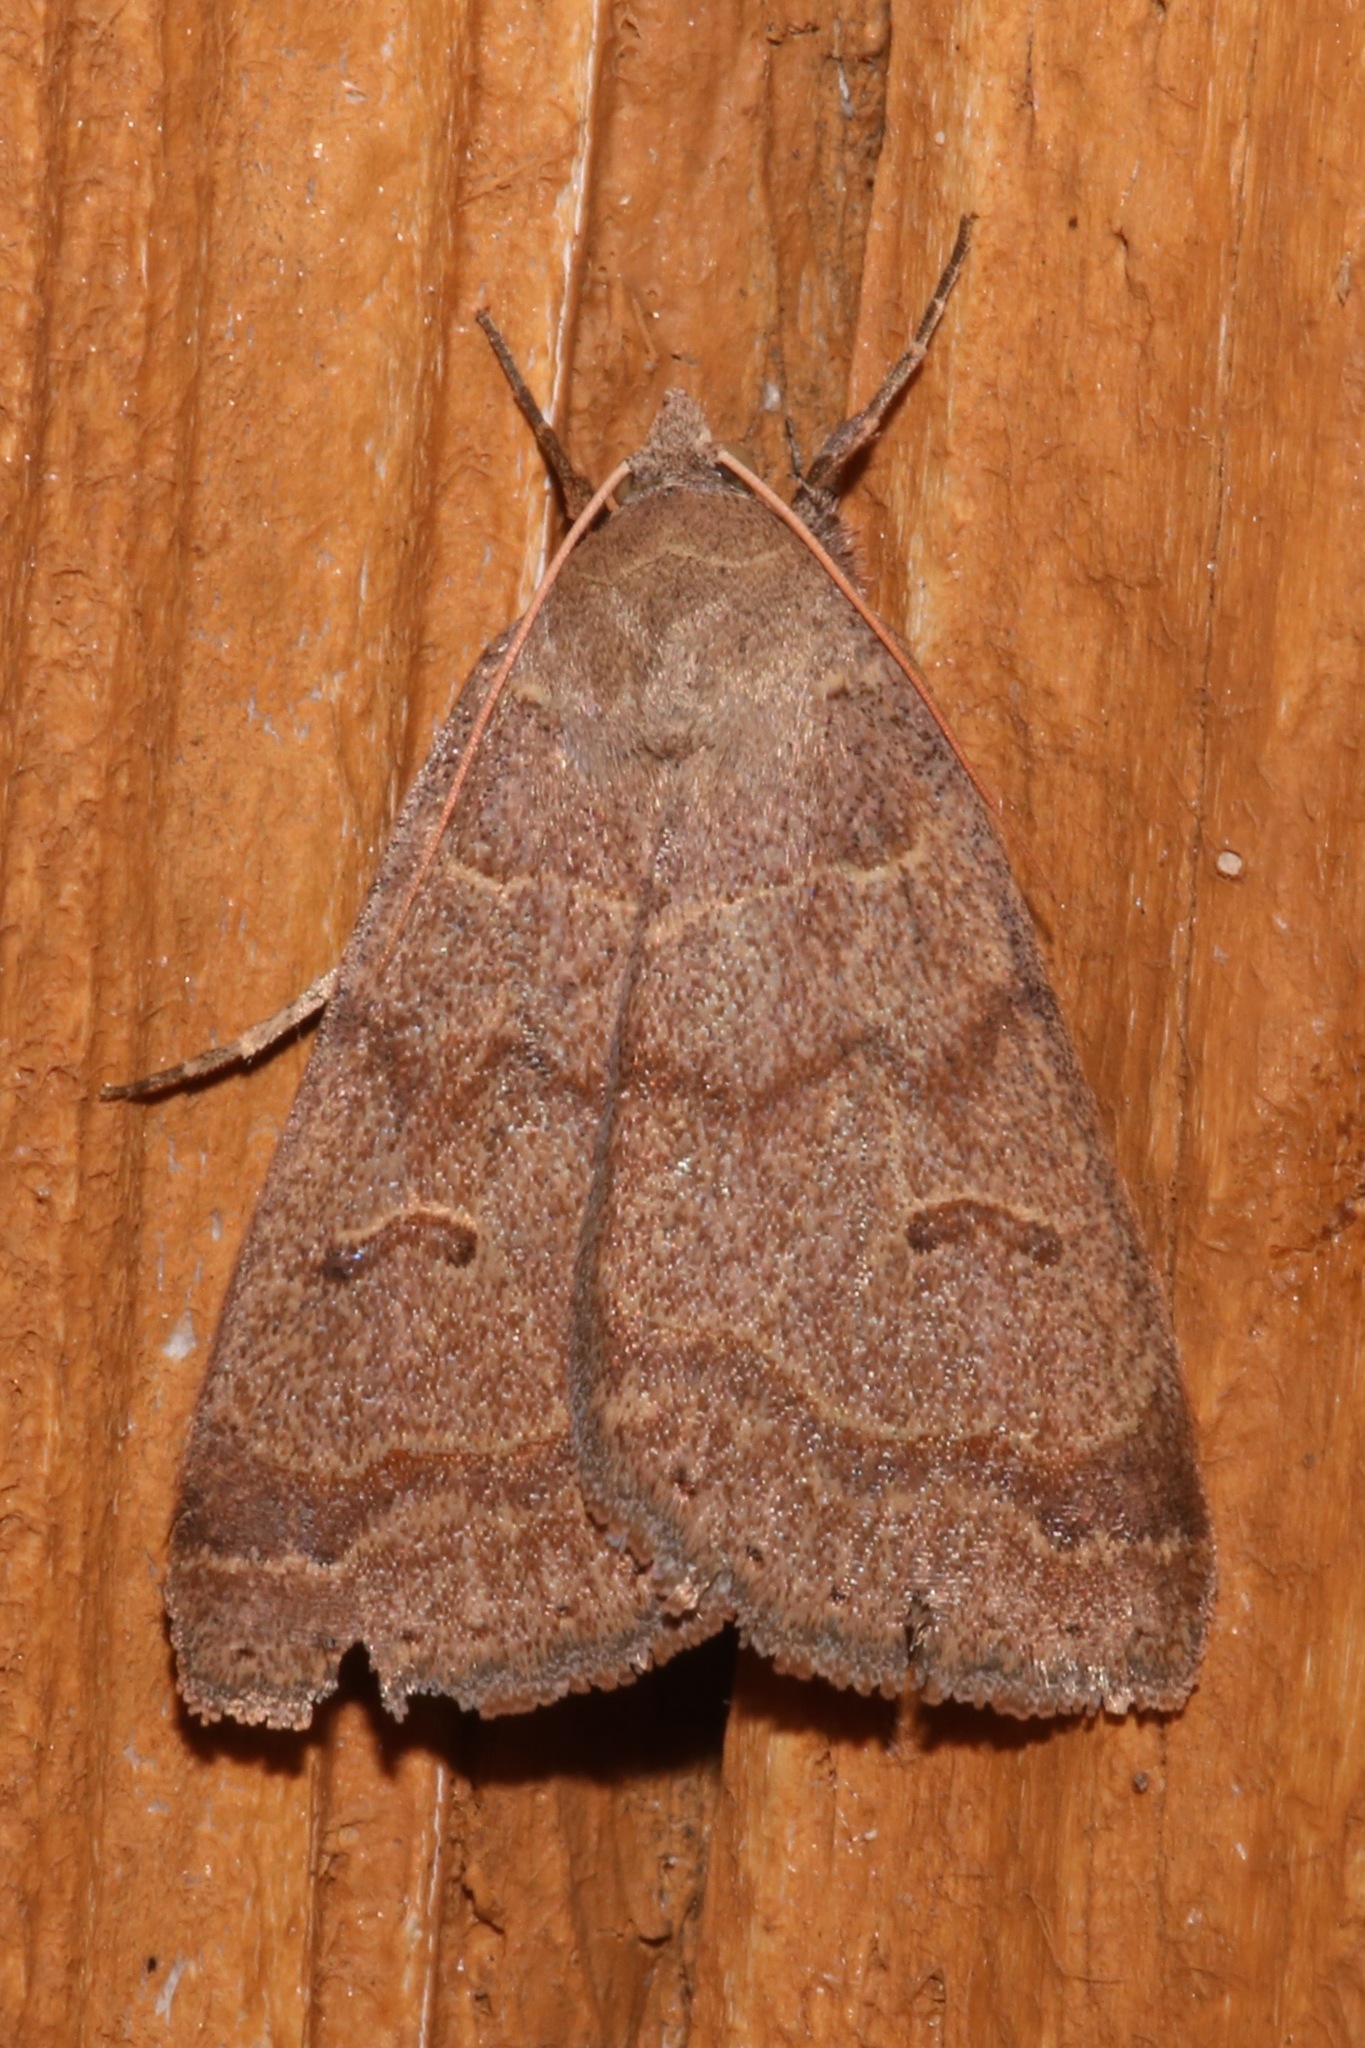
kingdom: Animalia
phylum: Arthropoda
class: Insecta
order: Lepidoptera
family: Erebidae
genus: Phoberia
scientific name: Phoberia atomaris
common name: Common oak moth
